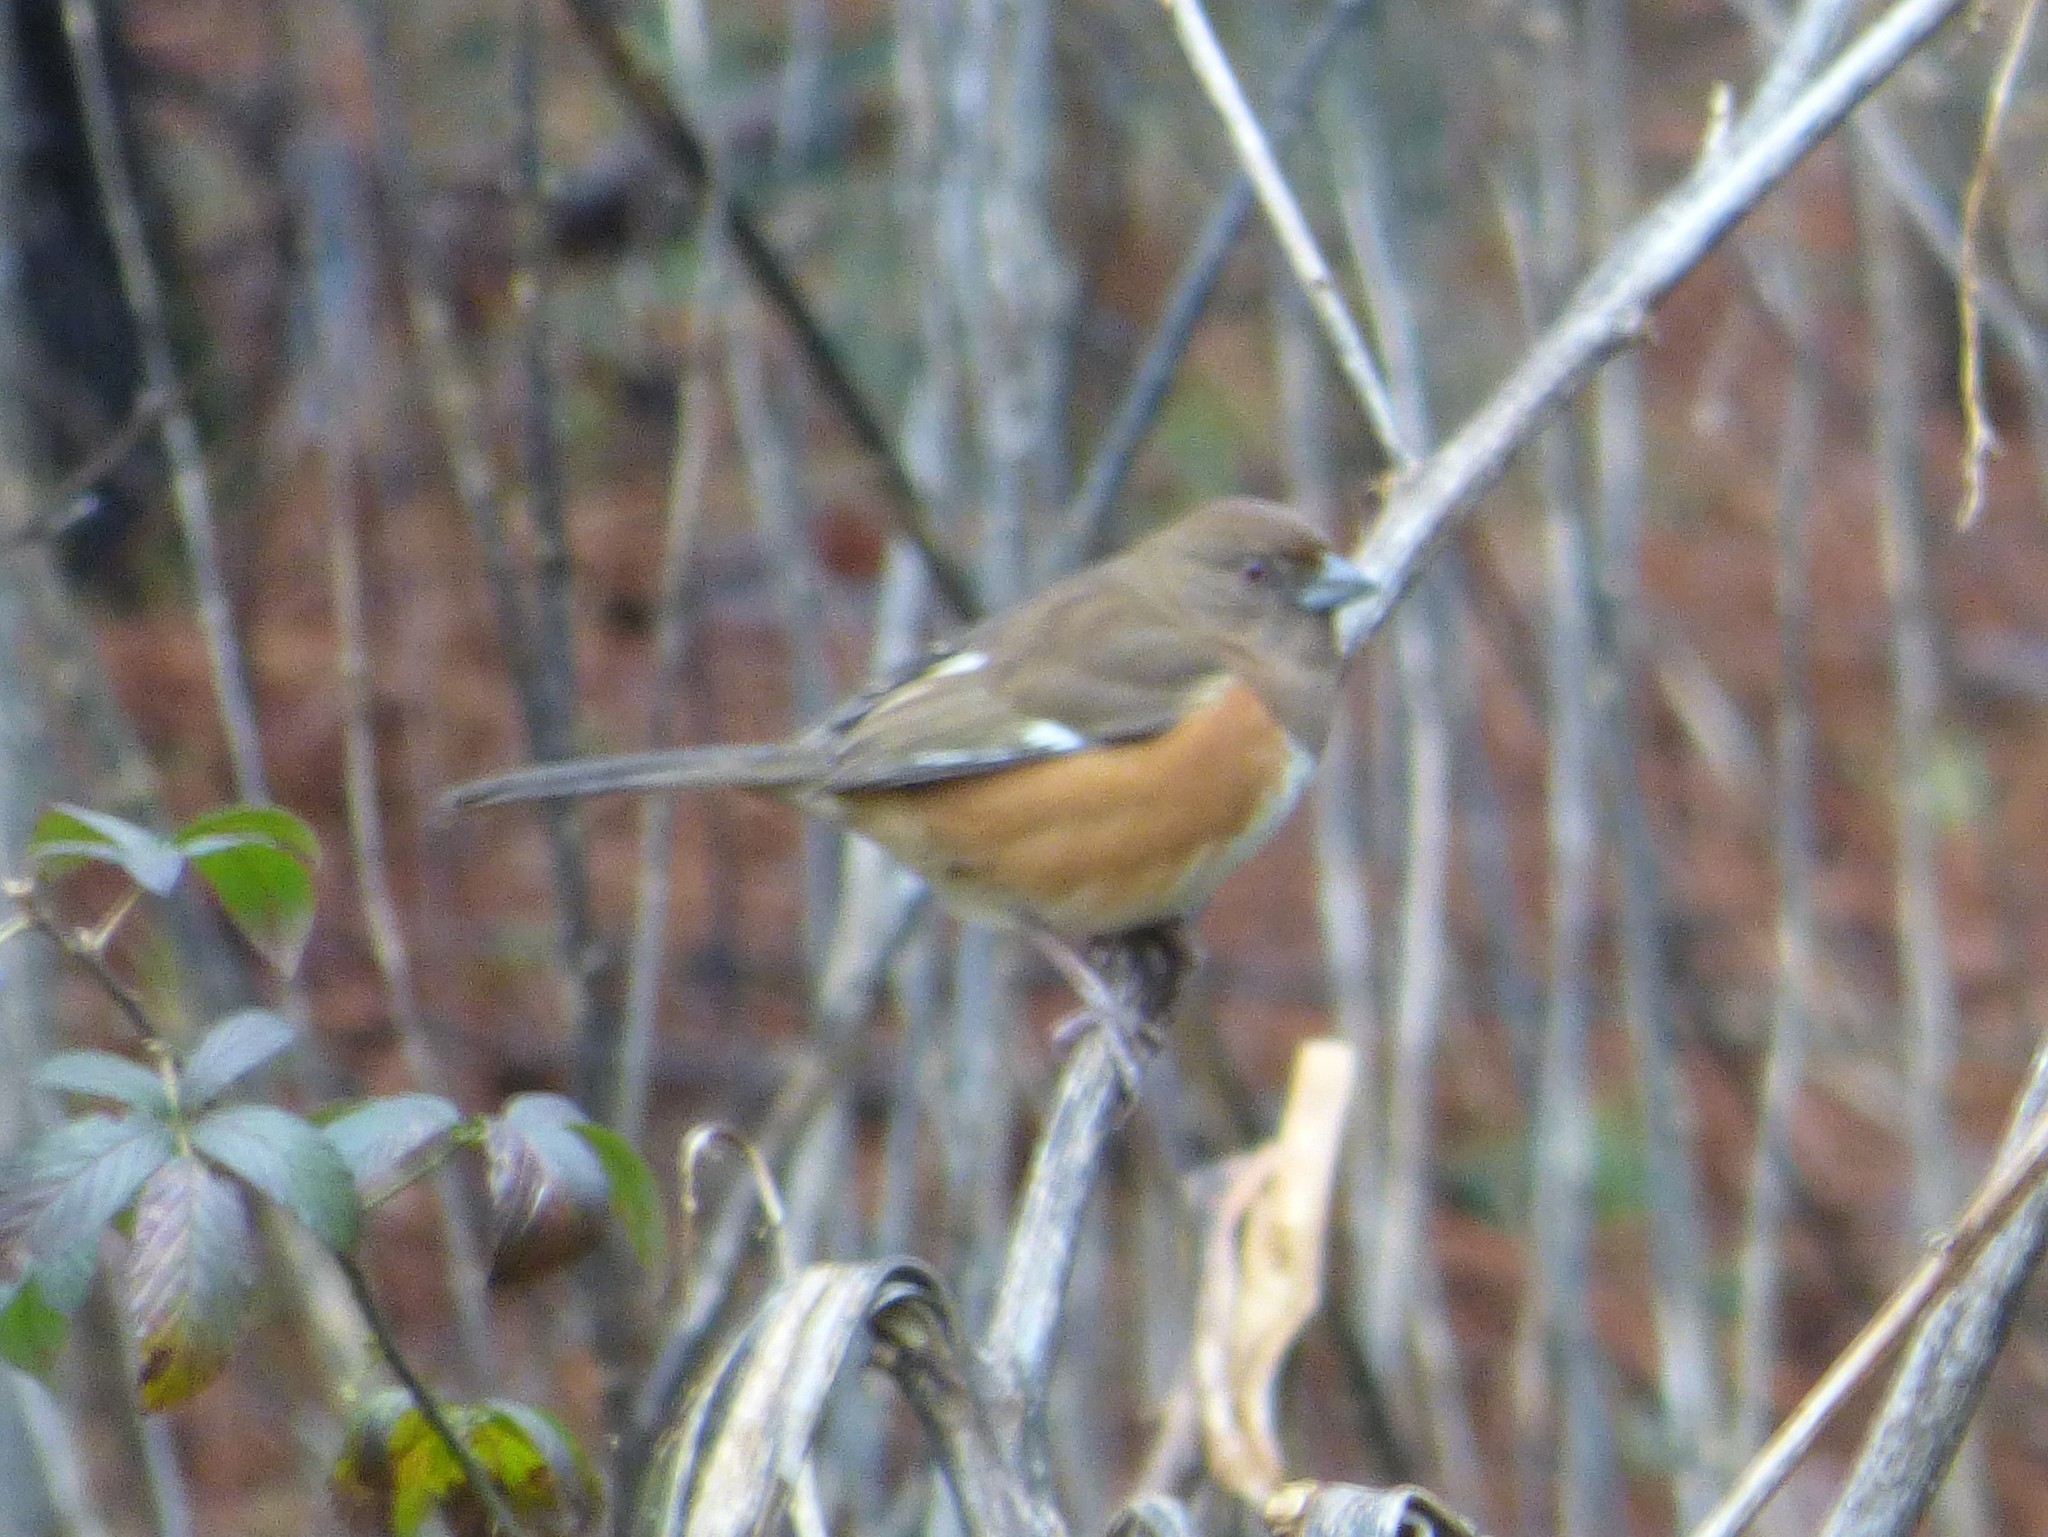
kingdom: Animalia
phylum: Chordata
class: Aves
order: Passeriformes
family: Passerellidae
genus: Pipilo
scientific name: Pipilo erythrophthalmus
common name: Eastern towhee
